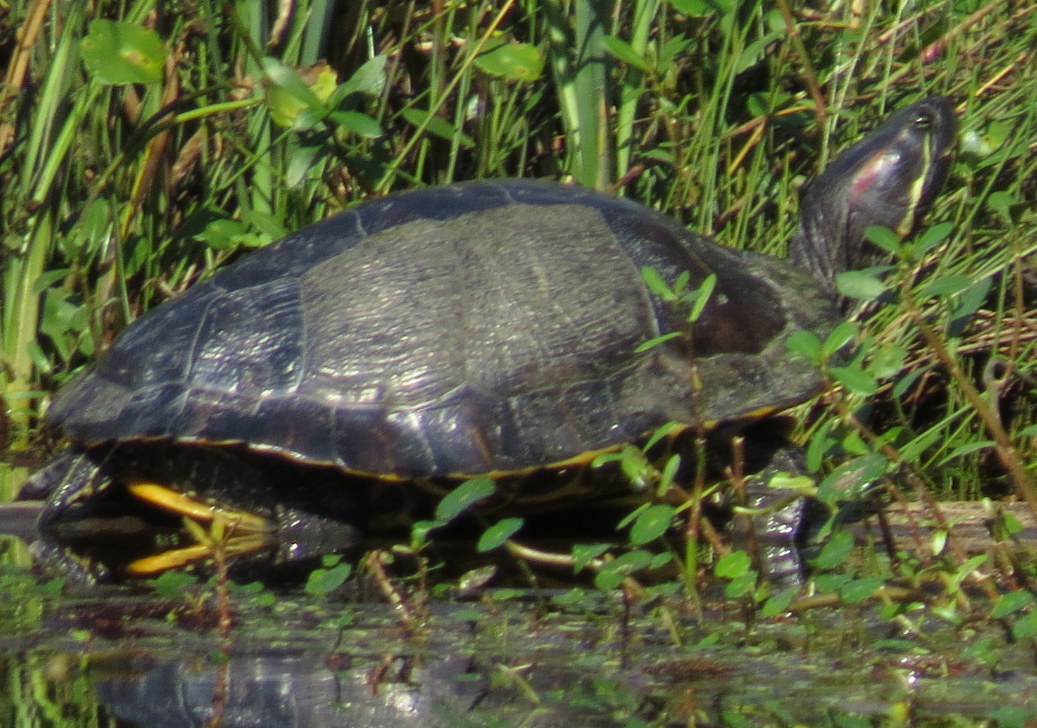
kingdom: Animalia
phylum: Chordata
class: Testudines
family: Emydidae
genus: Trachemys
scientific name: Trachemys scripta
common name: Slider
